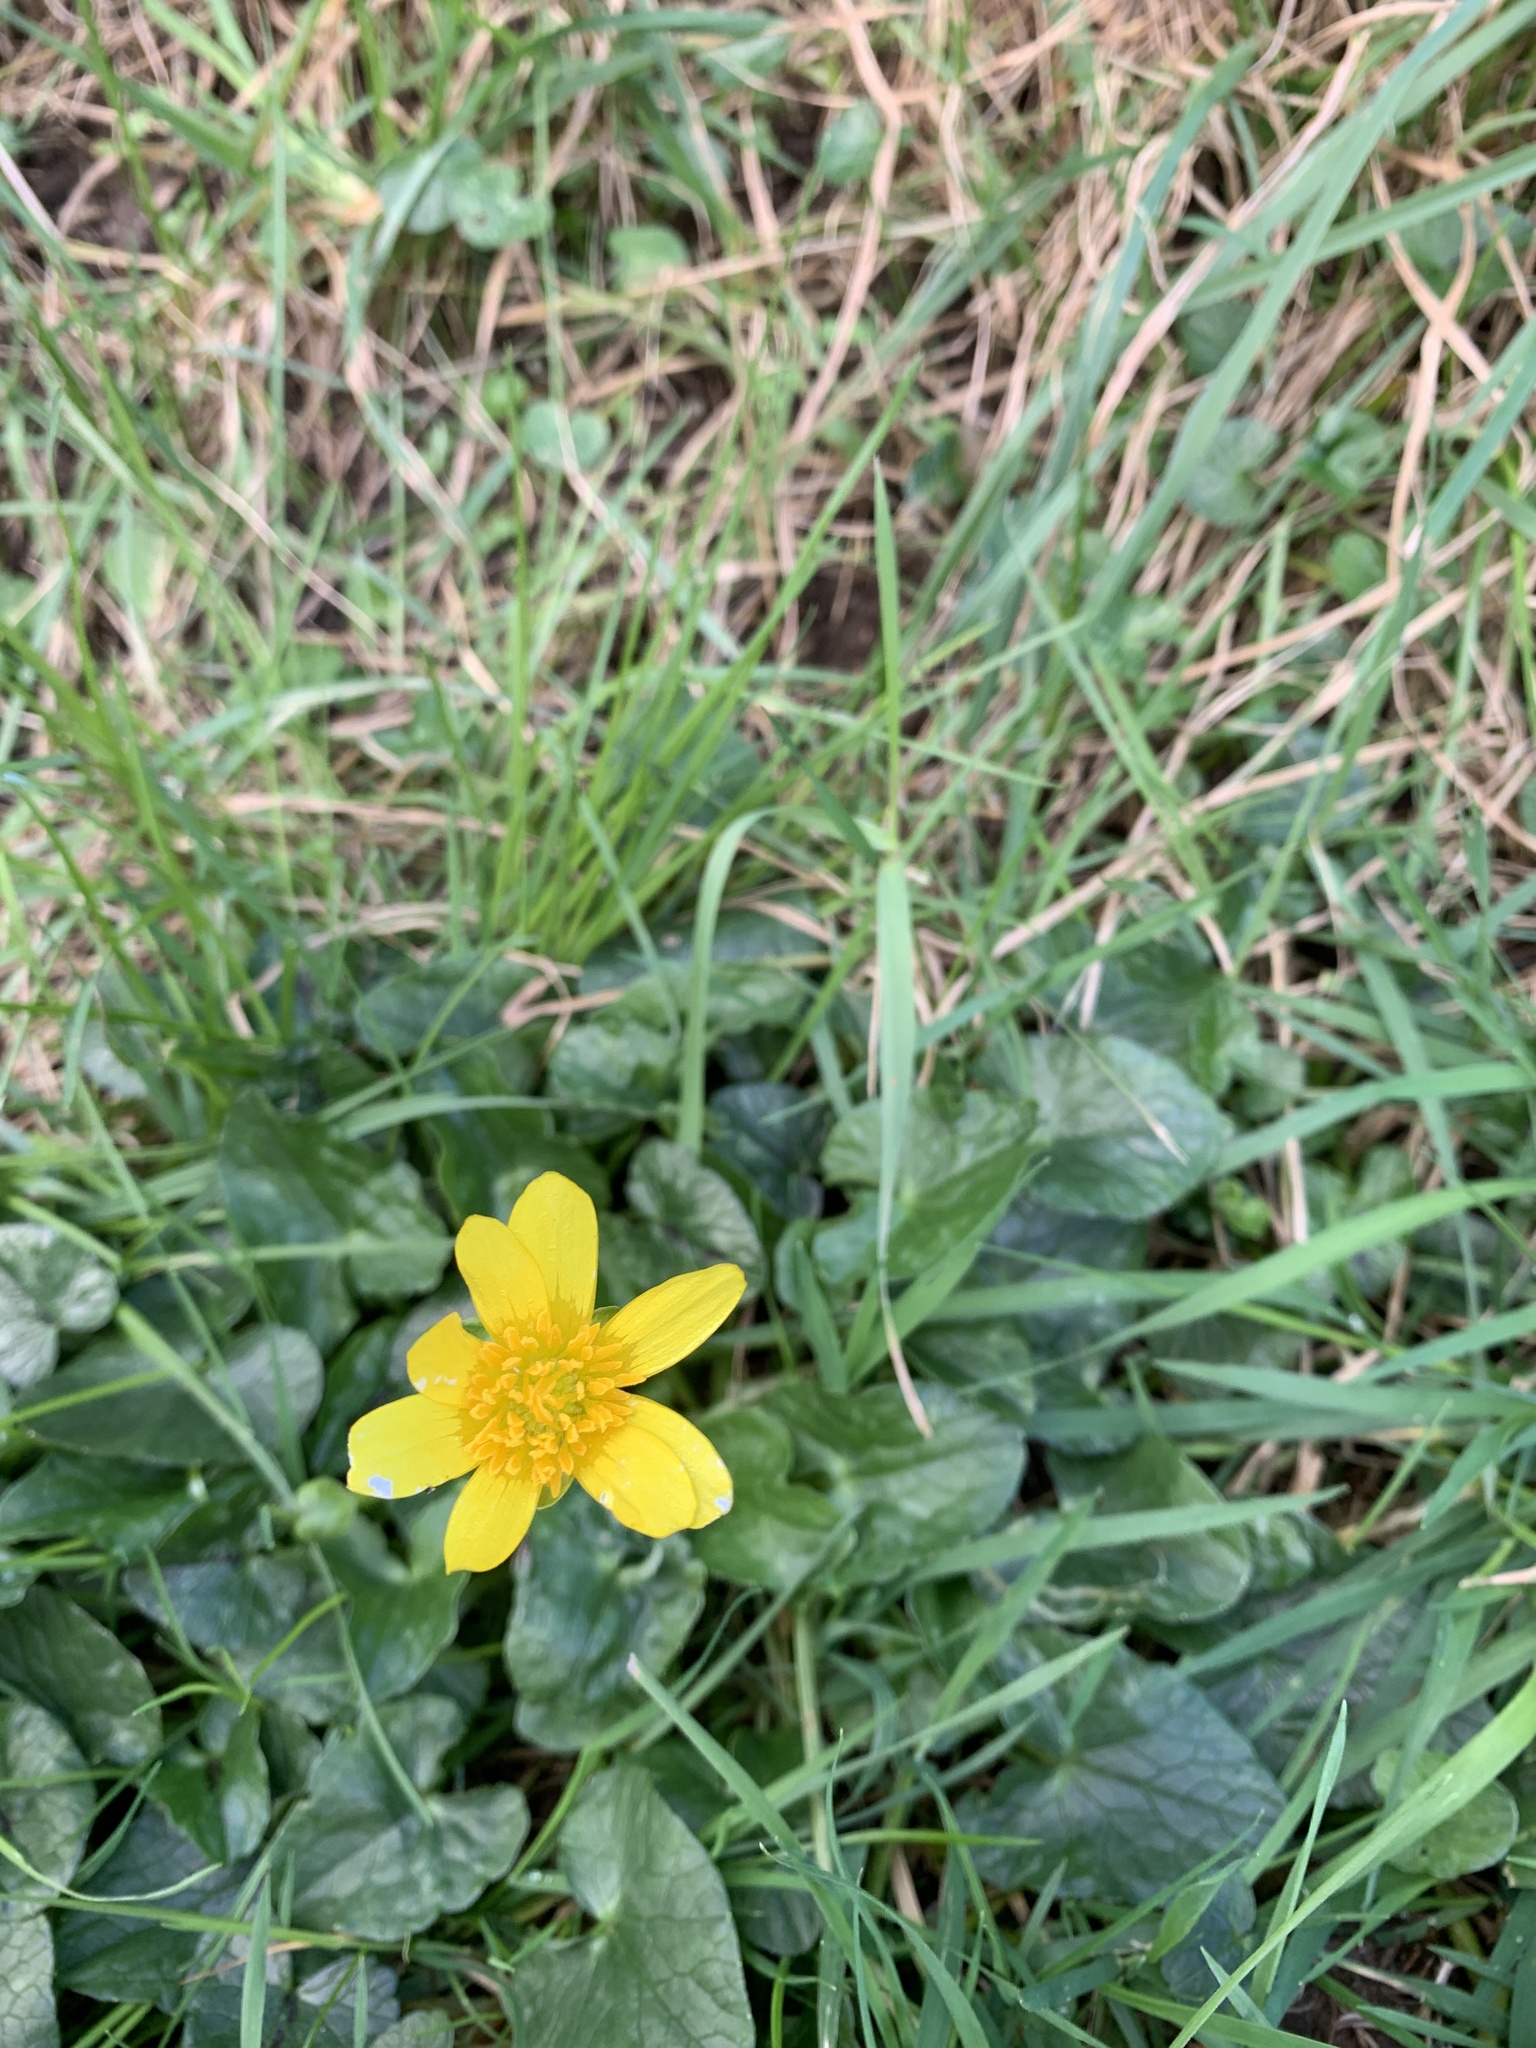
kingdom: Plantae
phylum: Tracheophyta
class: Magnoliopsida
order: Ranunculales
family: Ranunculaceae
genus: Ficaria
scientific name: Ficaria verna
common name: Lesser celandine
